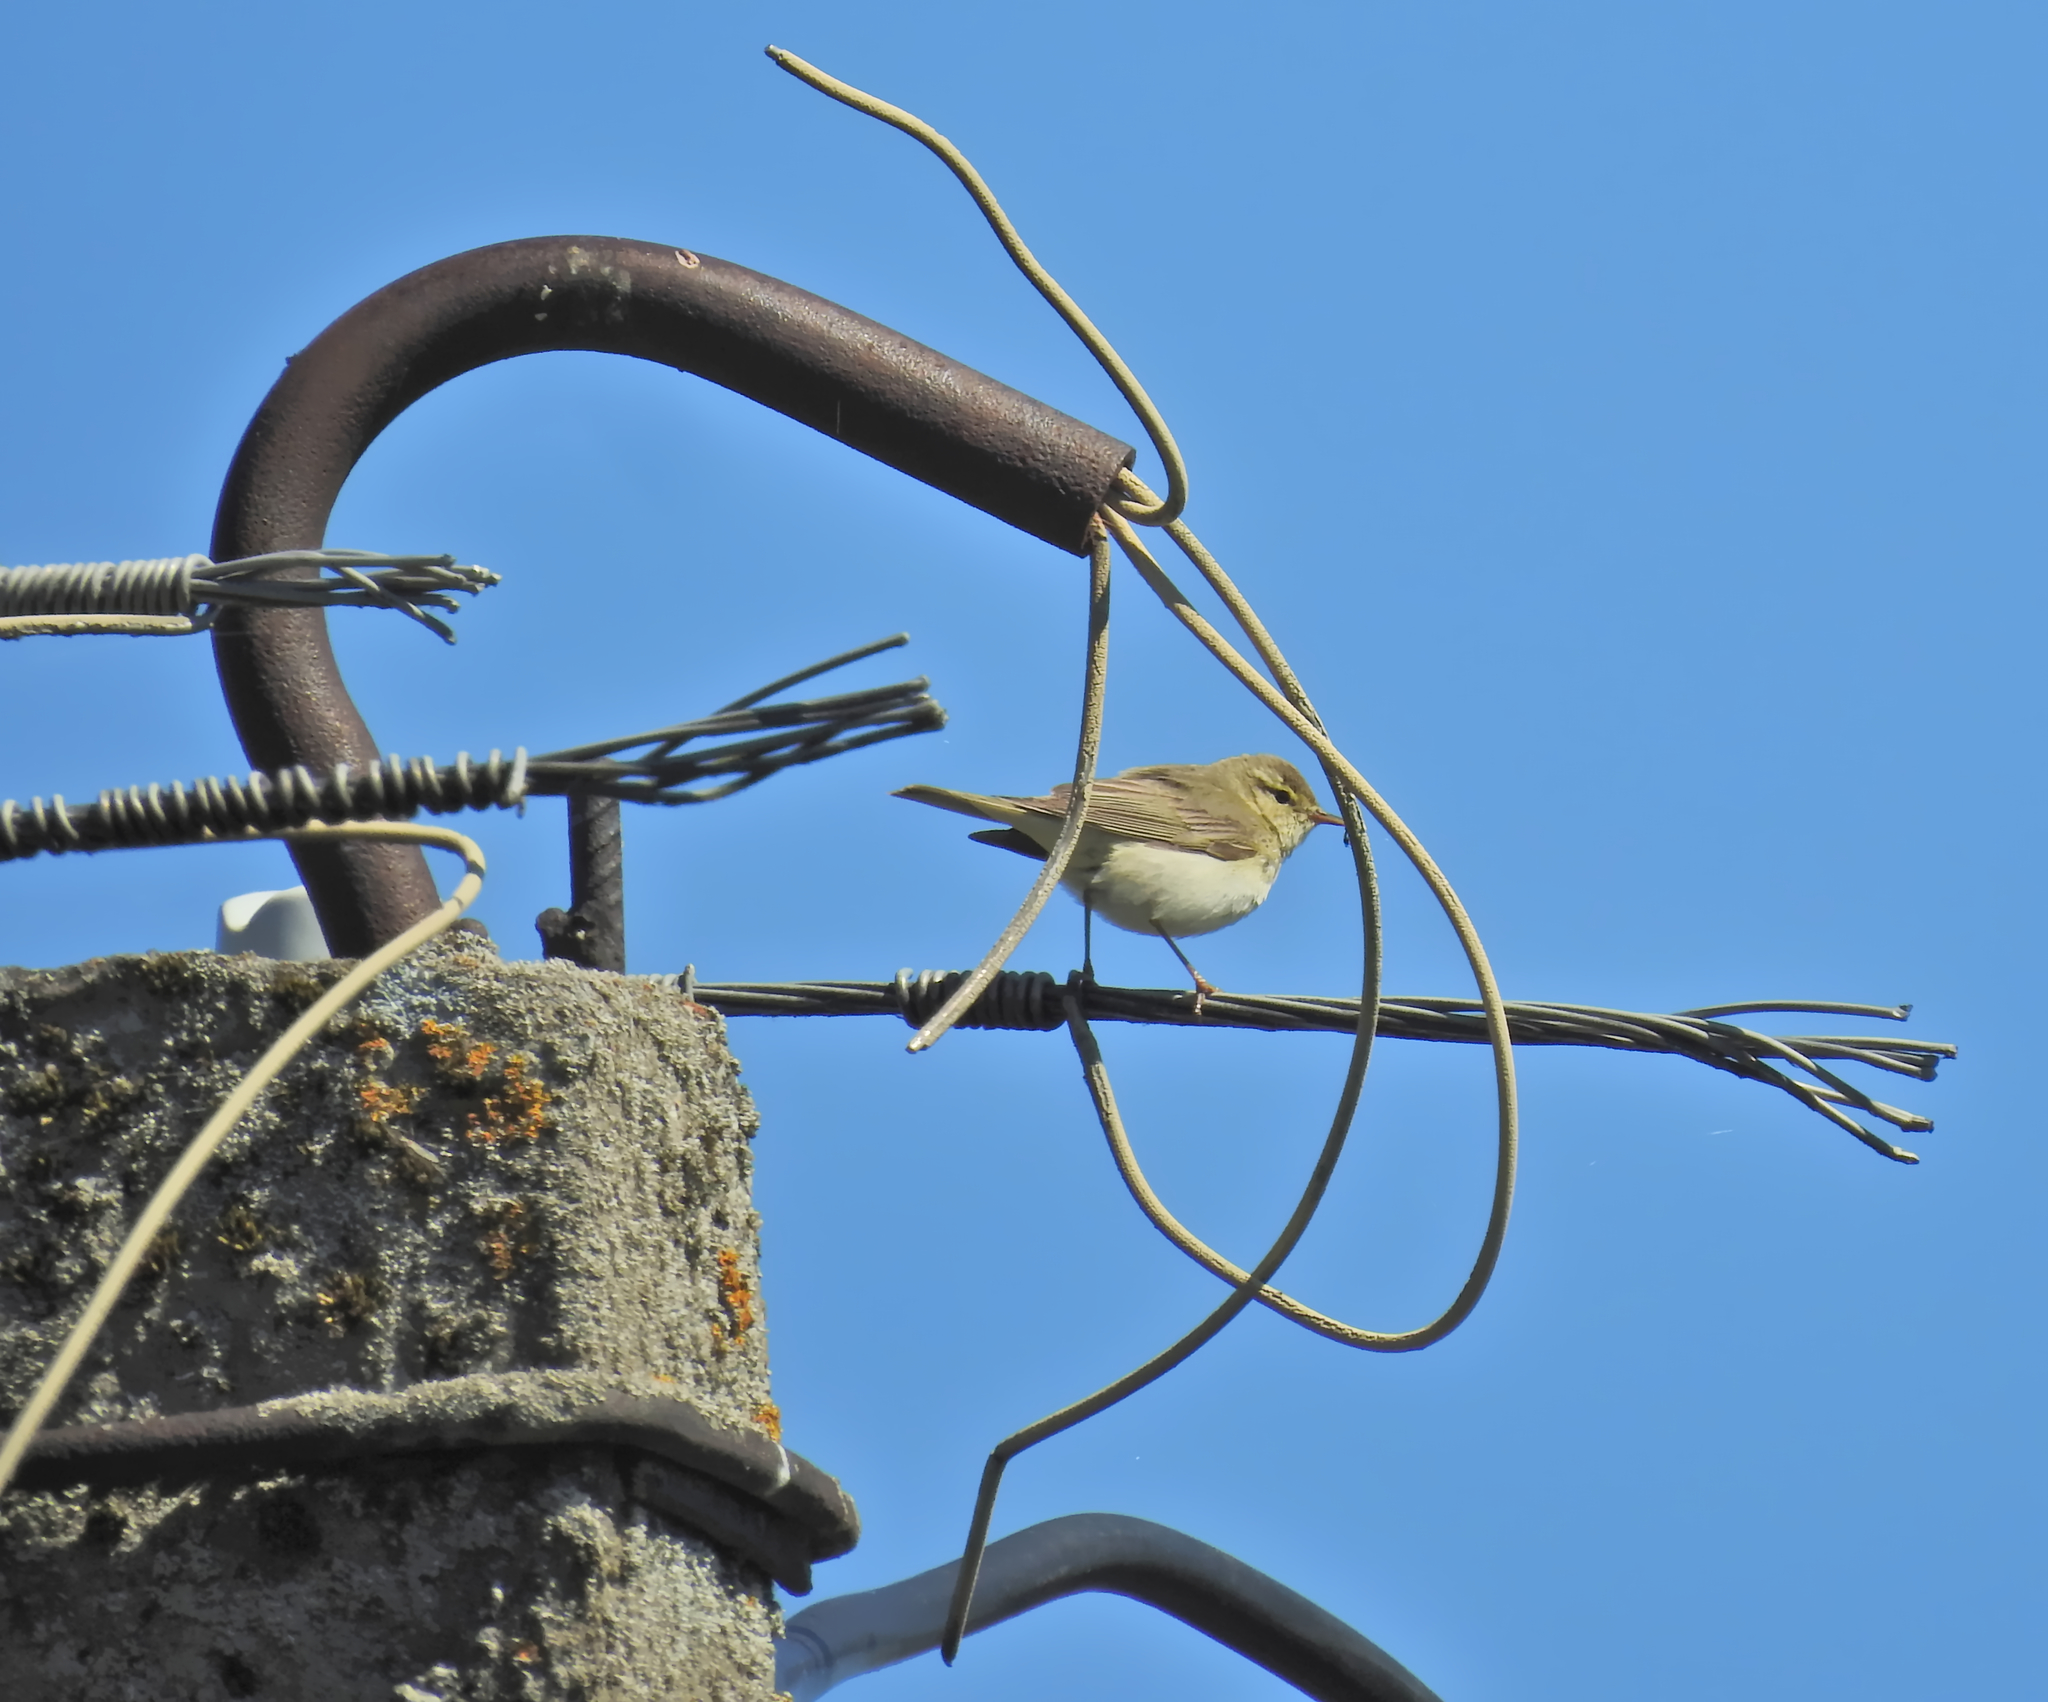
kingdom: Animalia
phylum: Chordata
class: Aves
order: Passeriformes
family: Phylloscopidae
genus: Phylloscopus
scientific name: Phylloscopus trochilus
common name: Willow warbler
